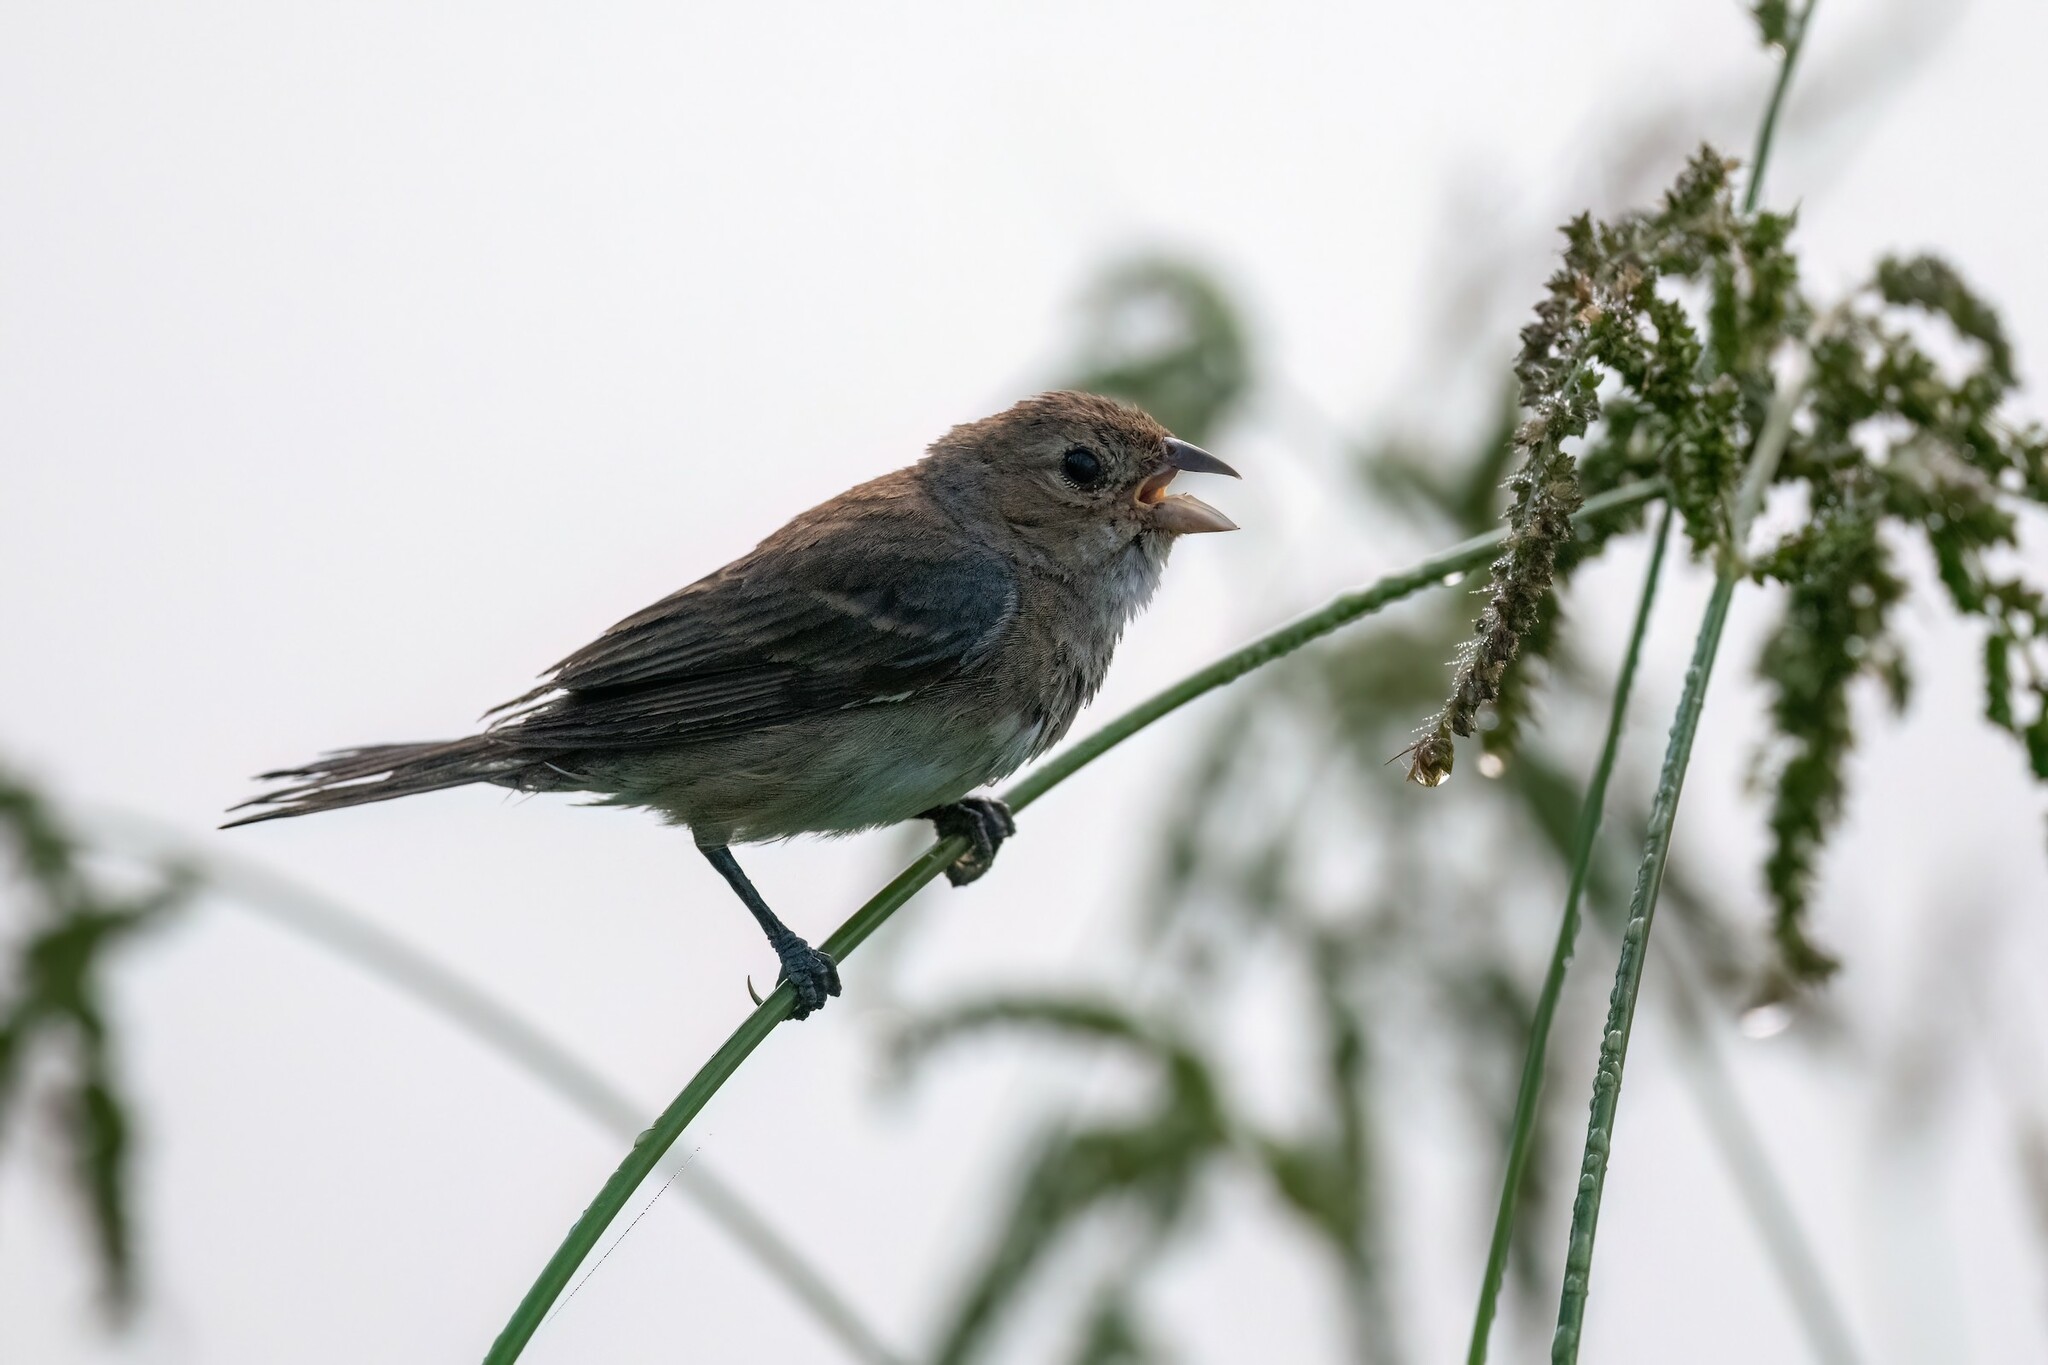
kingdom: Animalia
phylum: Chordata
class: Aves
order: Passeriformes
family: Cardinalidae
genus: Passerina
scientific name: Passerina cyanea
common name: Indigo bunting
